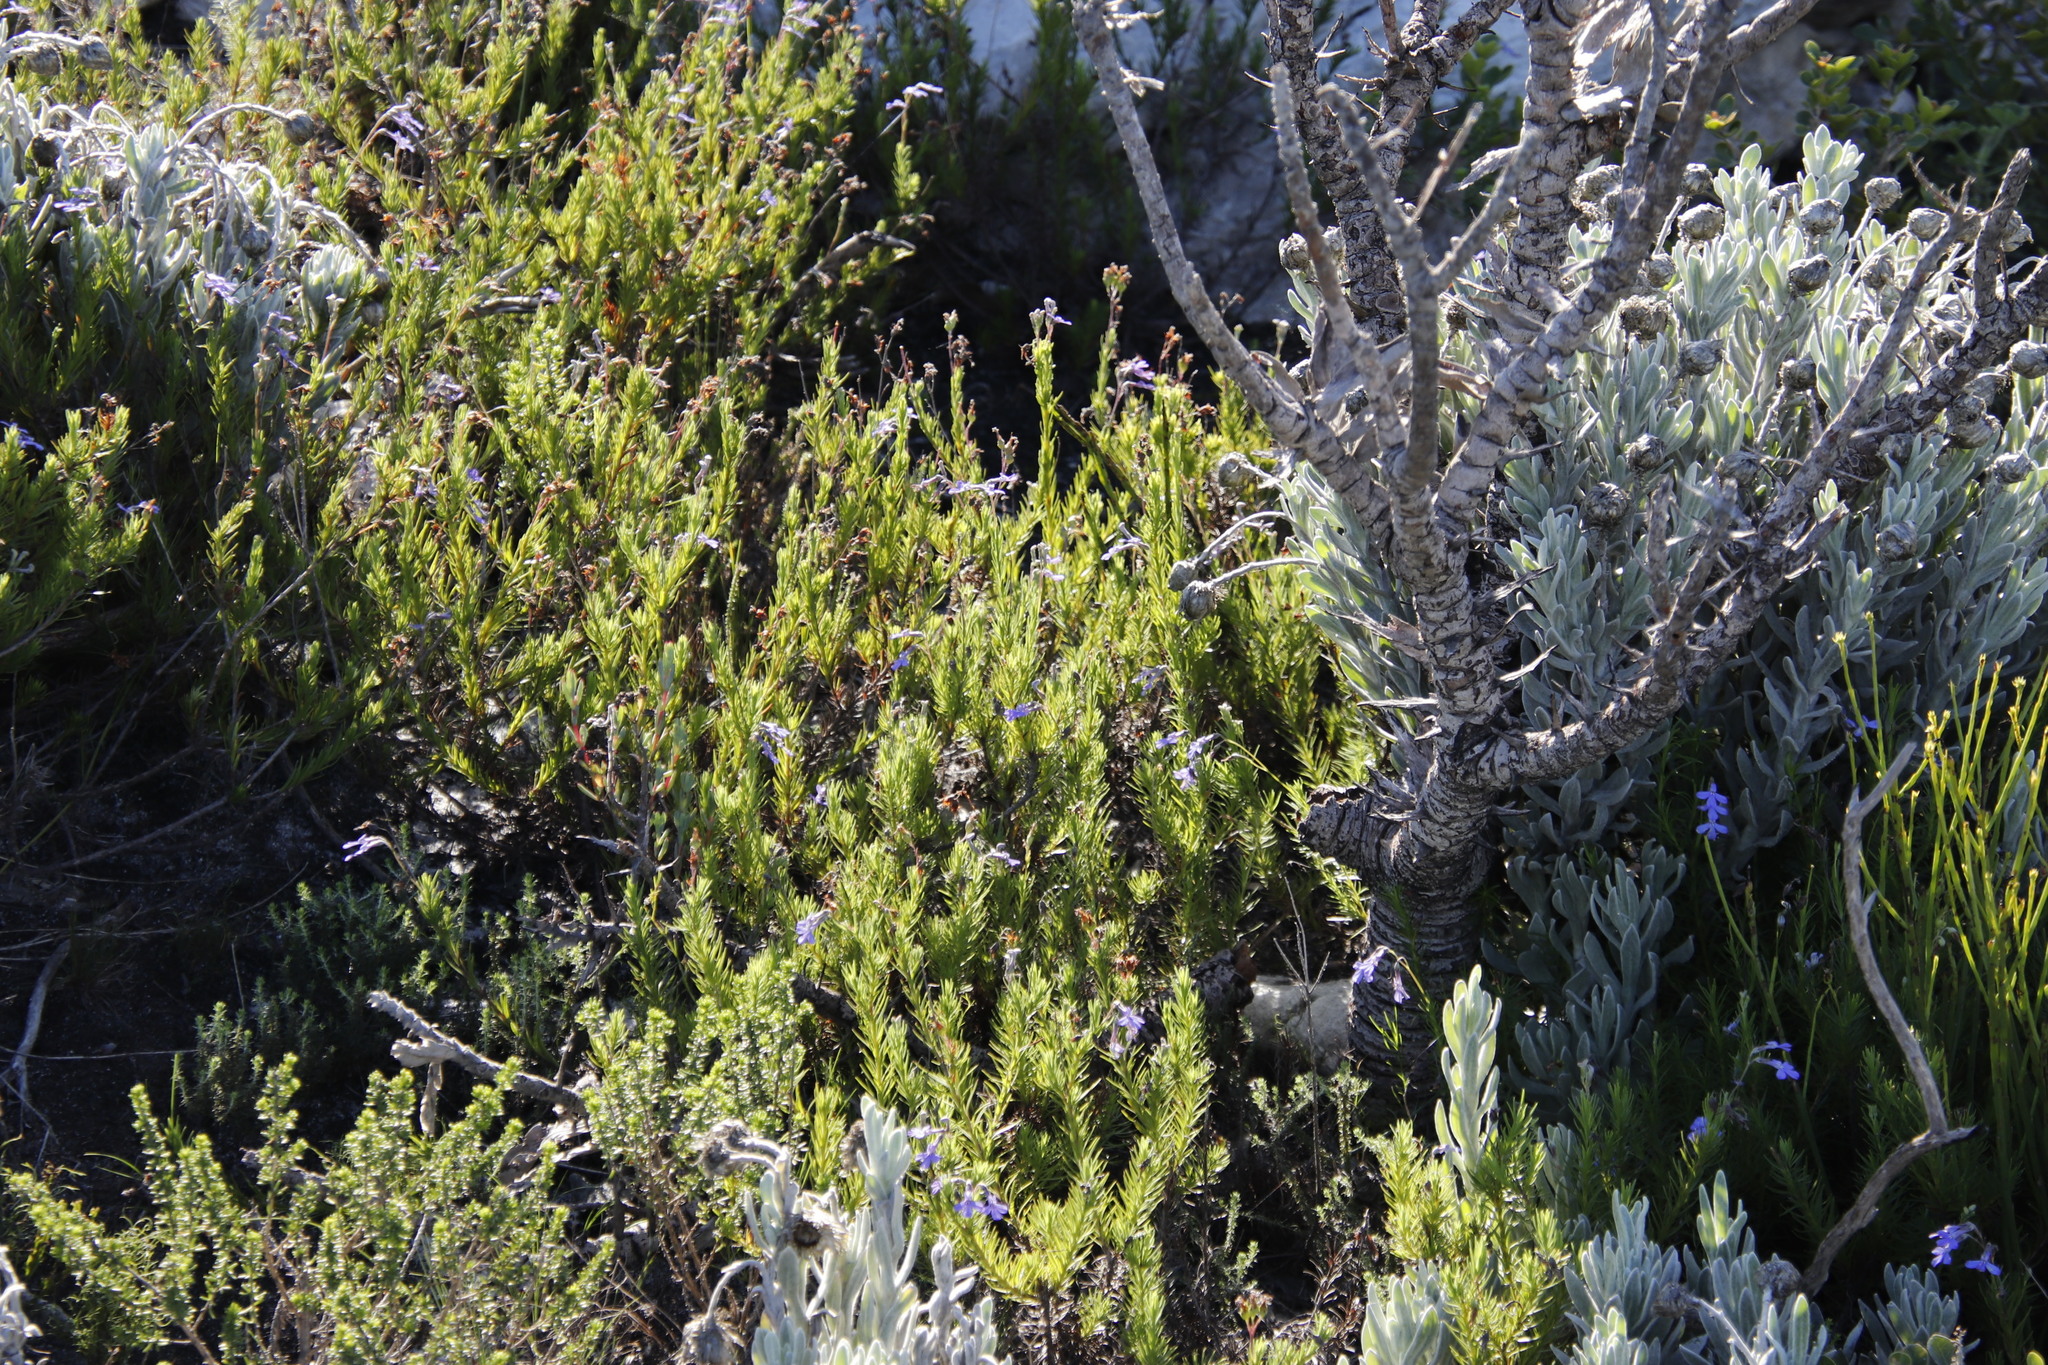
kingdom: Plantae
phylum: Tracheophyta
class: Magnoliopsida
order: Asterales
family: Campanulaceae
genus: Lobelia
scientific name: Lobelia pinifolia
